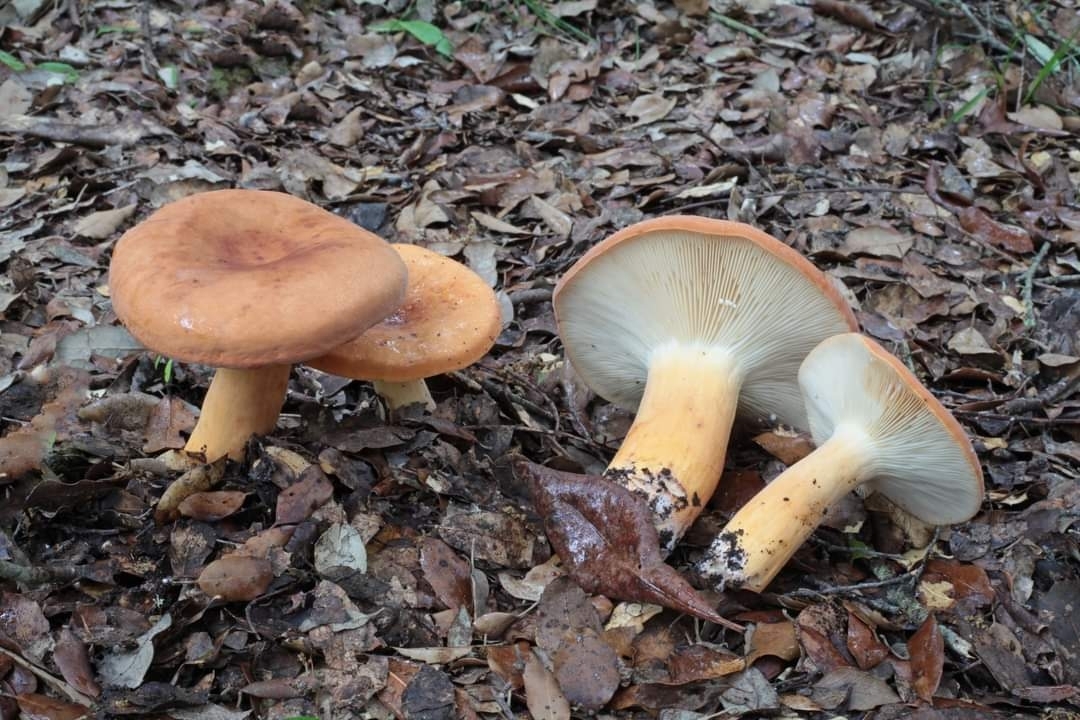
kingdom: Fungi
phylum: Basidiomycota
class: Agaricomycetes
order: Russulales
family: Russulaceae
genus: Lactifluus
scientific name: Lactifluus oedematopus
